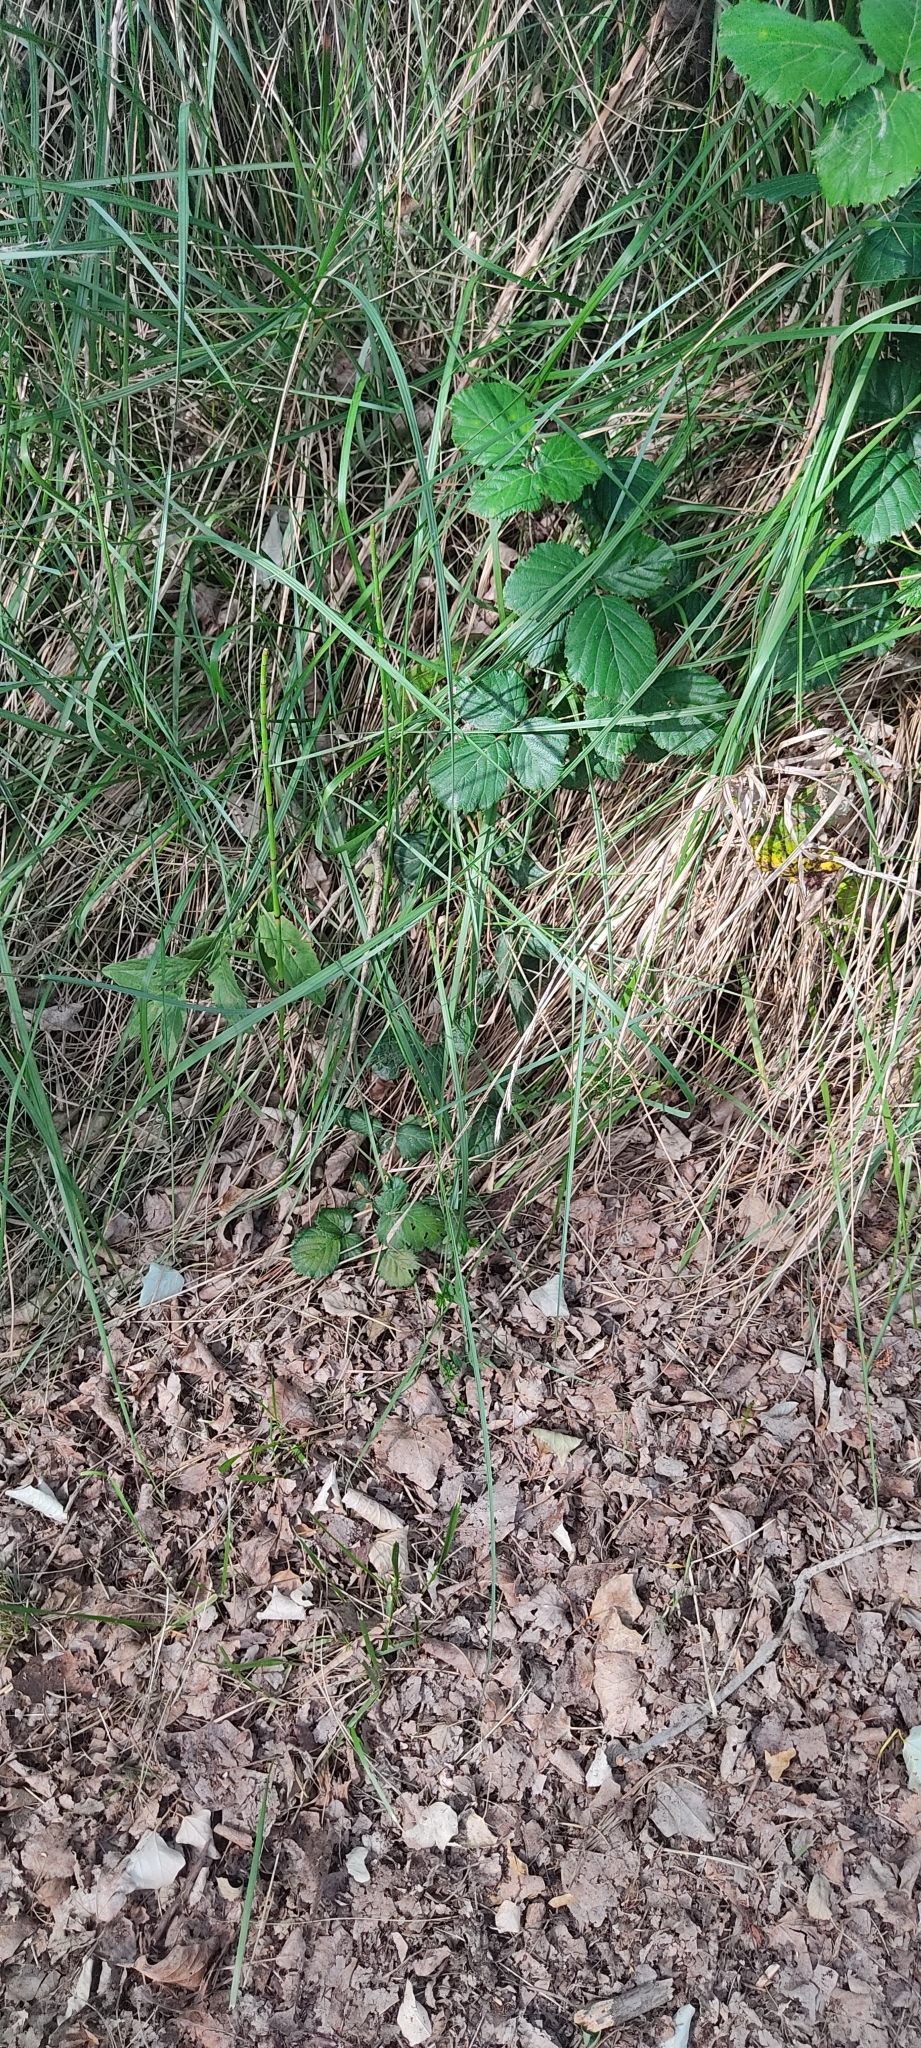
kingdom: Animalia
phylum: Chordata
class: Squamata
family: Lacertidae
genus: Lacerta
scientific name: Lacerta bilineata
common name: Western green lizard
